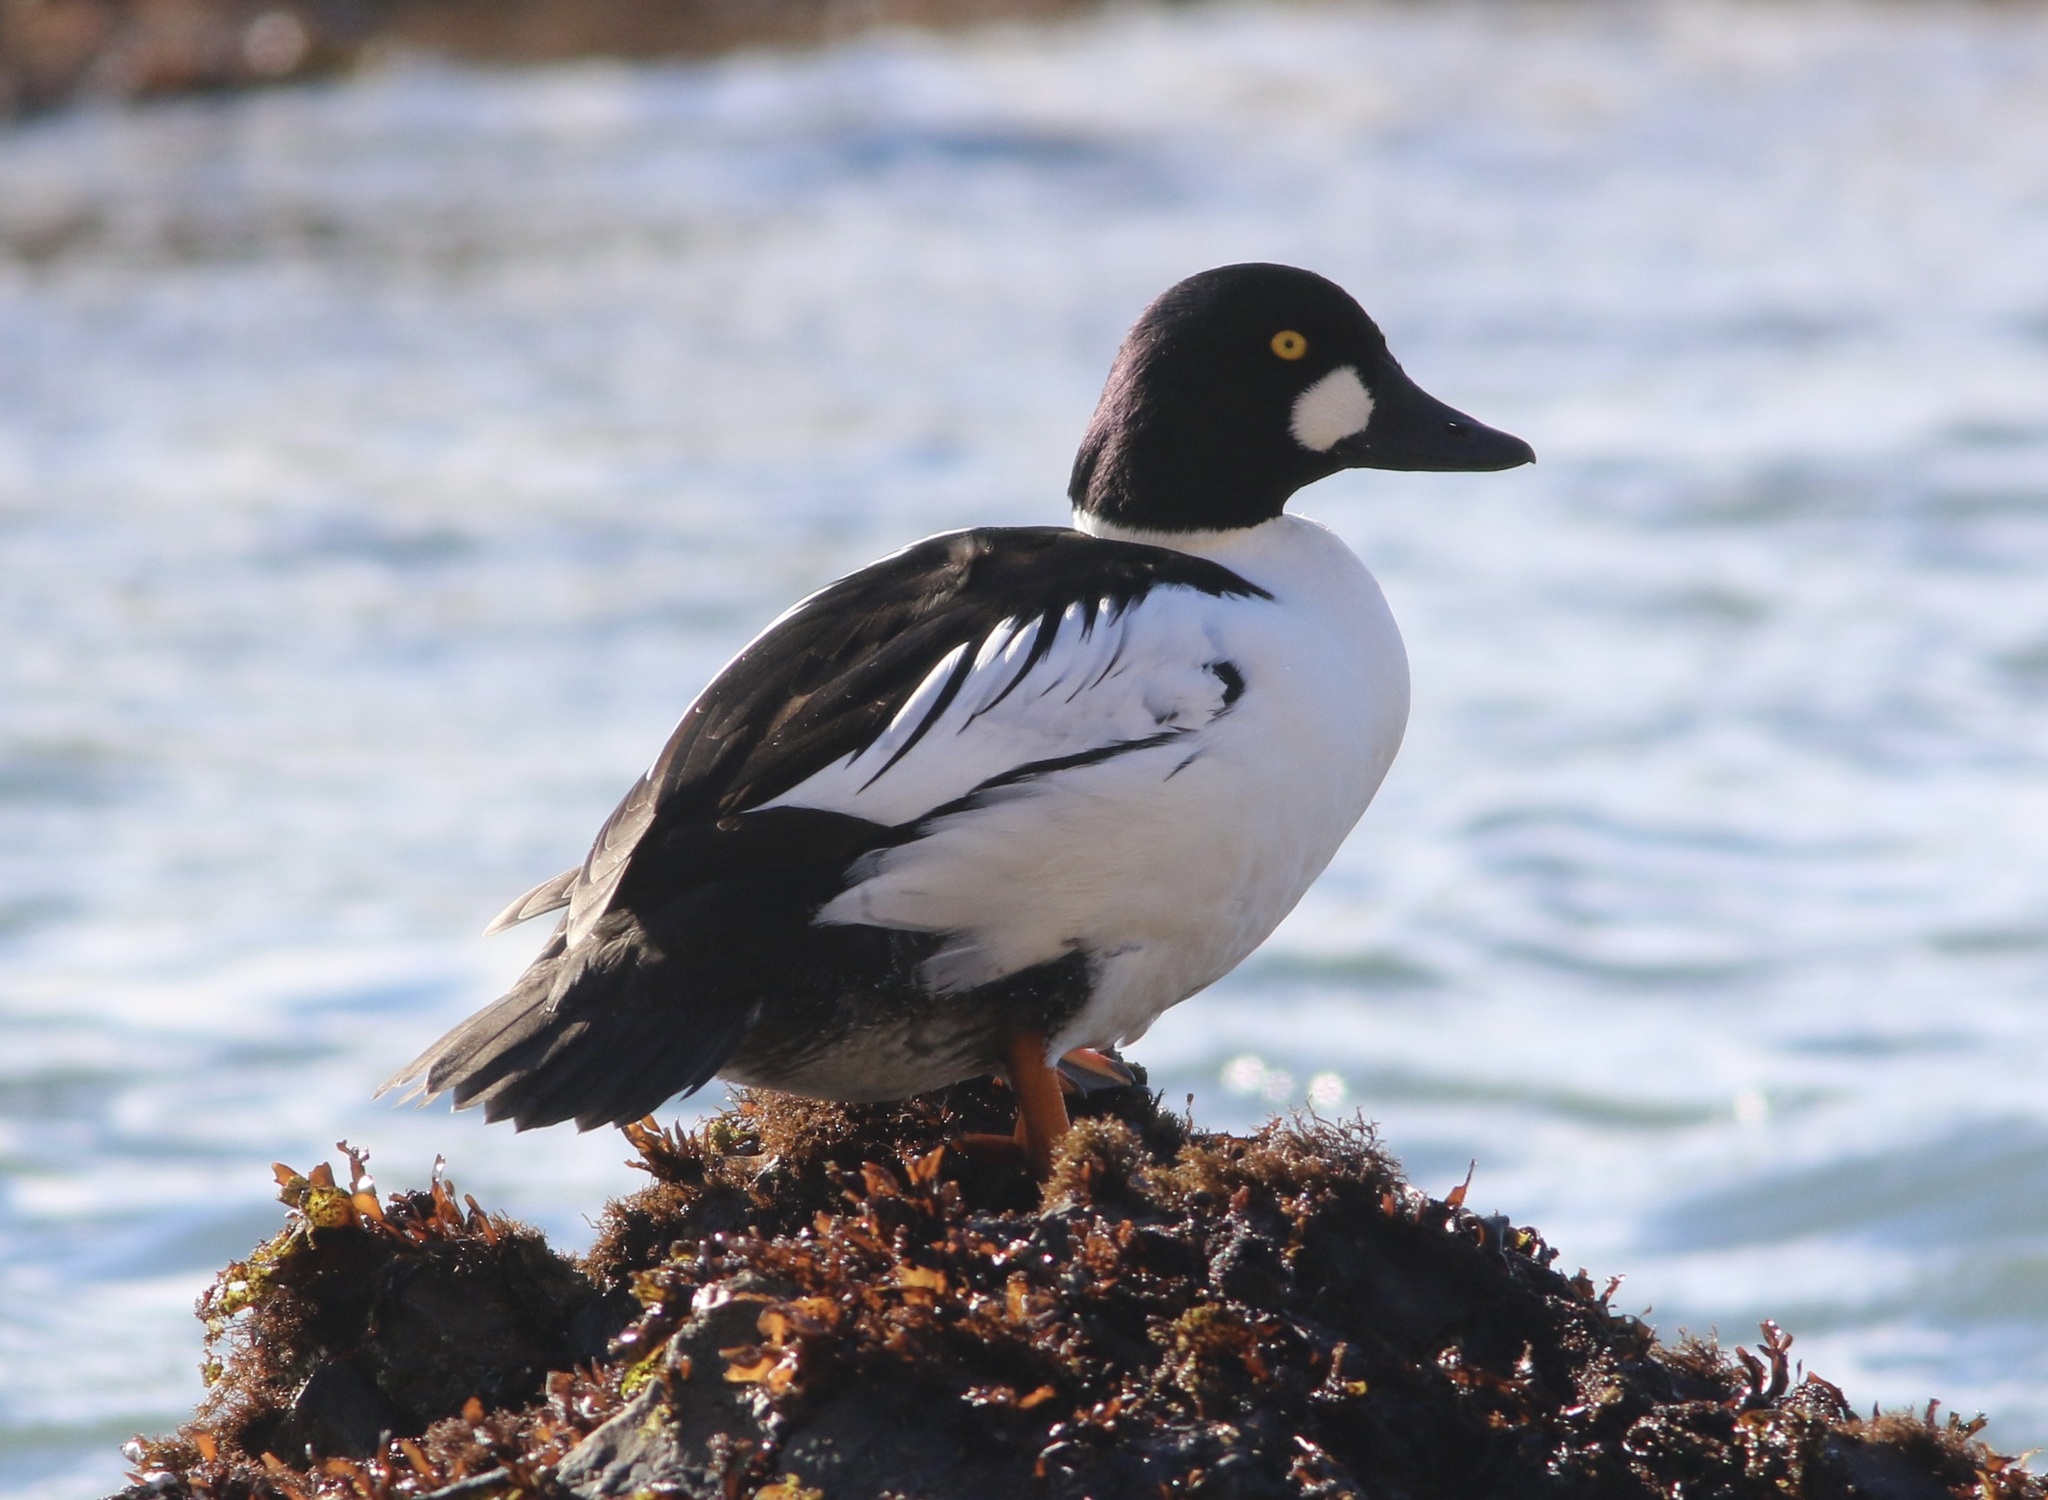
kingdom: Animalia
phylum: Chordata
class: Aves
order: Anseriformes
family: Anatidae
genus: Bucephala
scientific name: Bucephala clangula
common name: Common goldeneye
